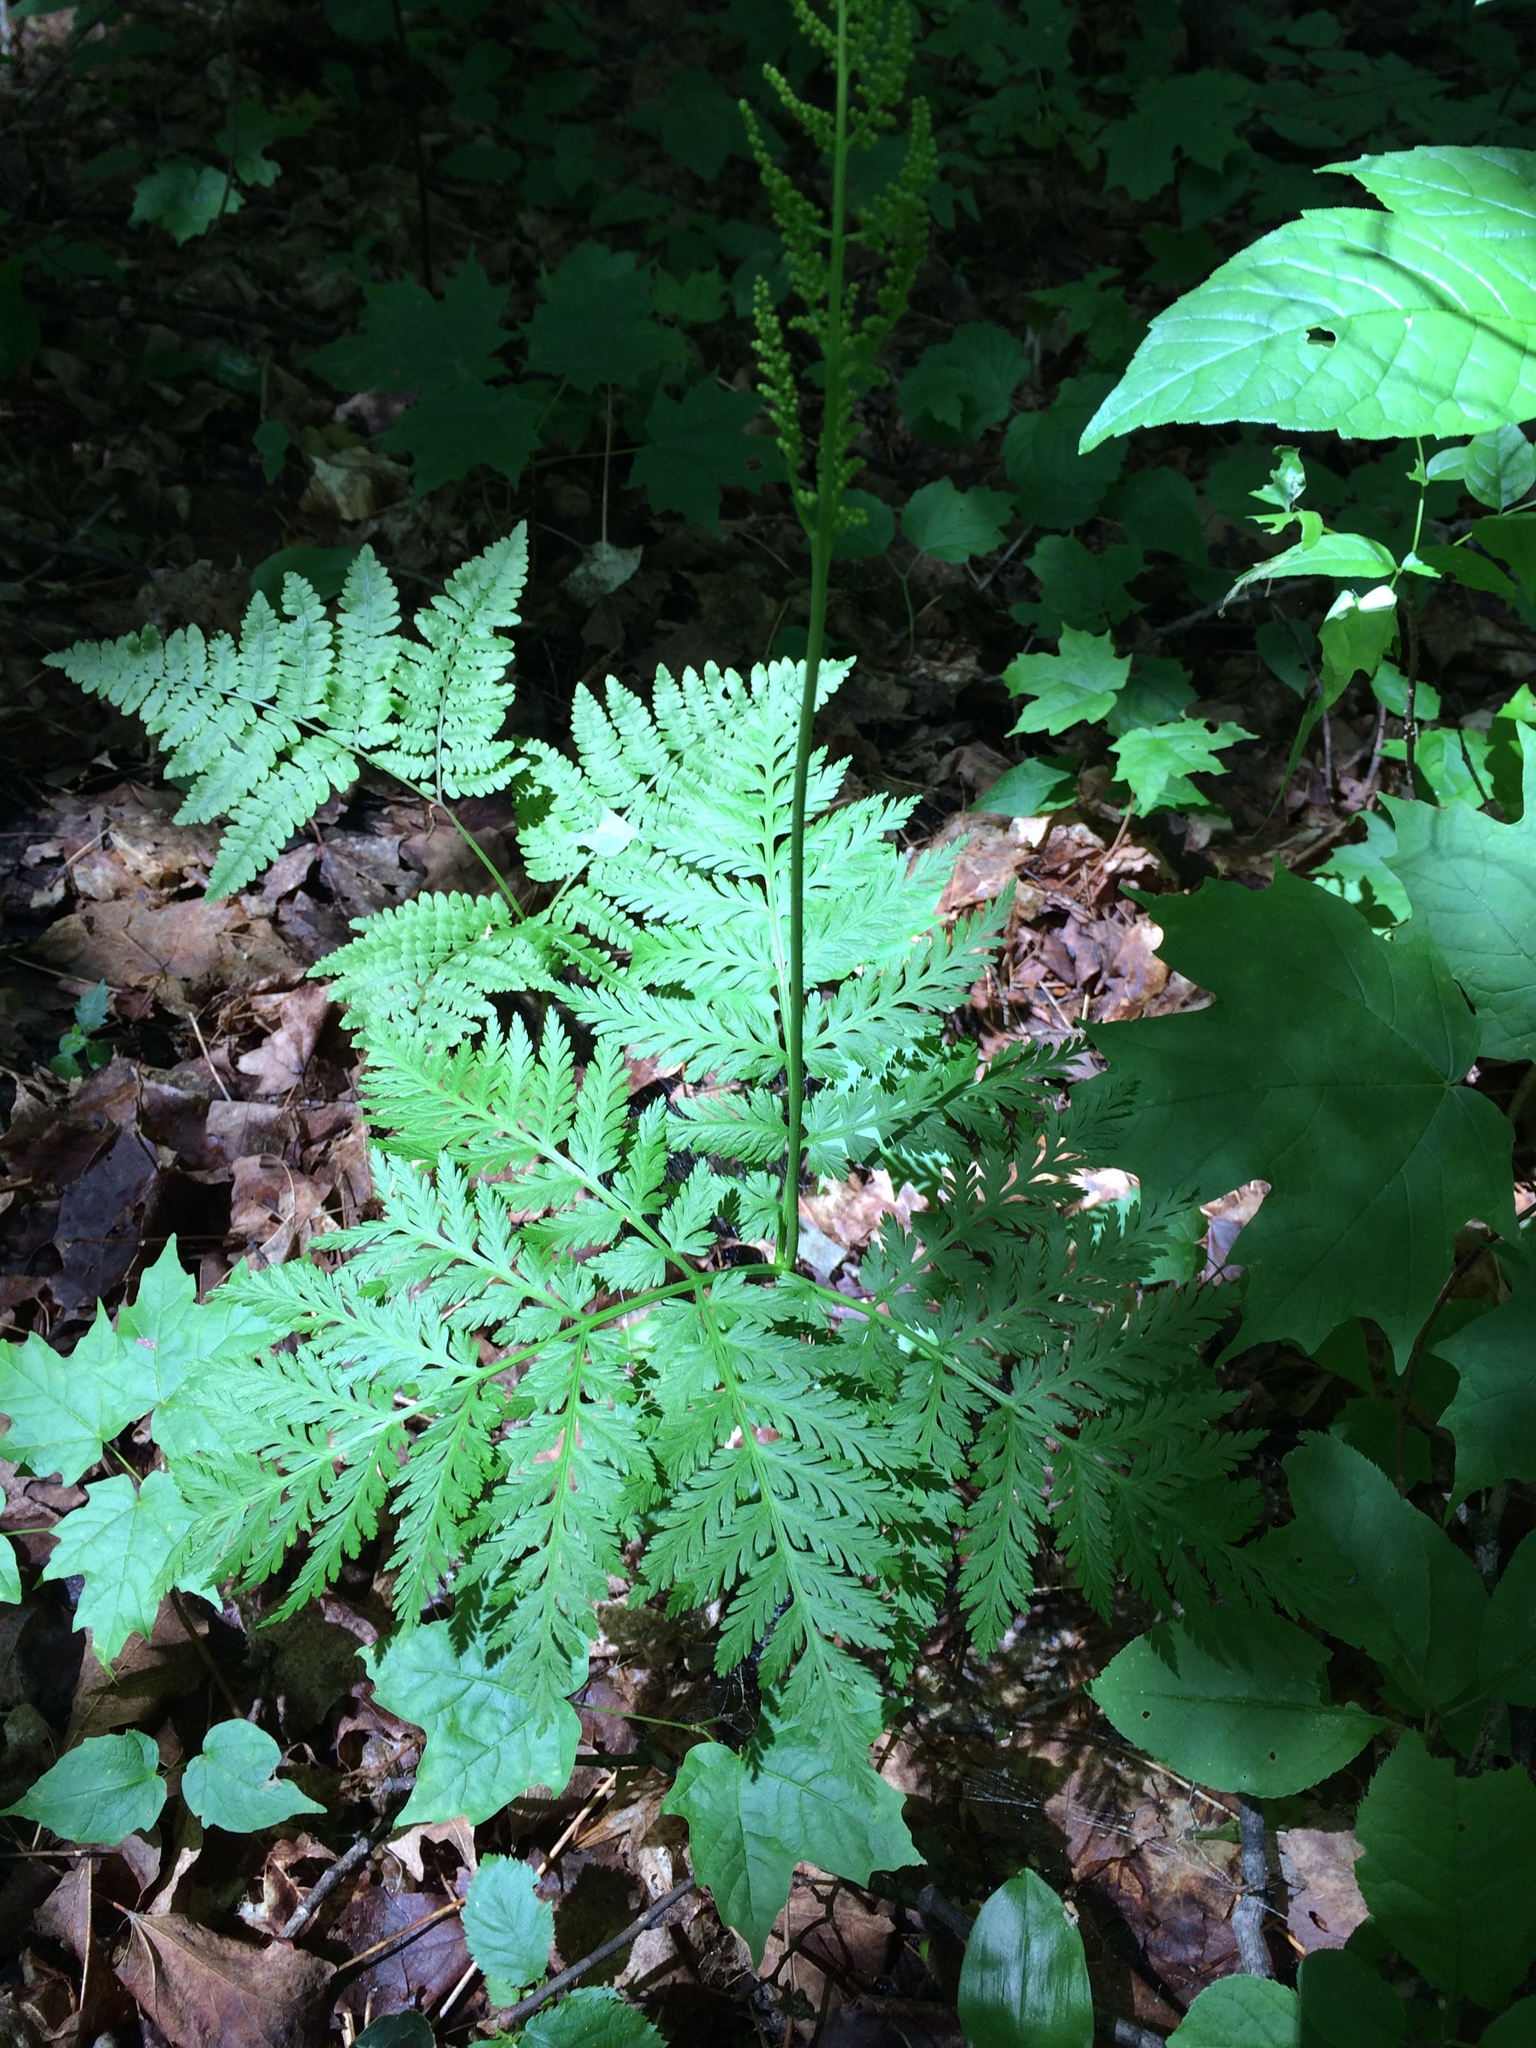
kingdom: Plantae
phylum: Tracheophyta
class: Polypodiopsida
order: Ophioglossales
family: Ophioglossaceae
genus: Botrypus
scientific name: Botrypus virginianus
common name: Common grapefern
